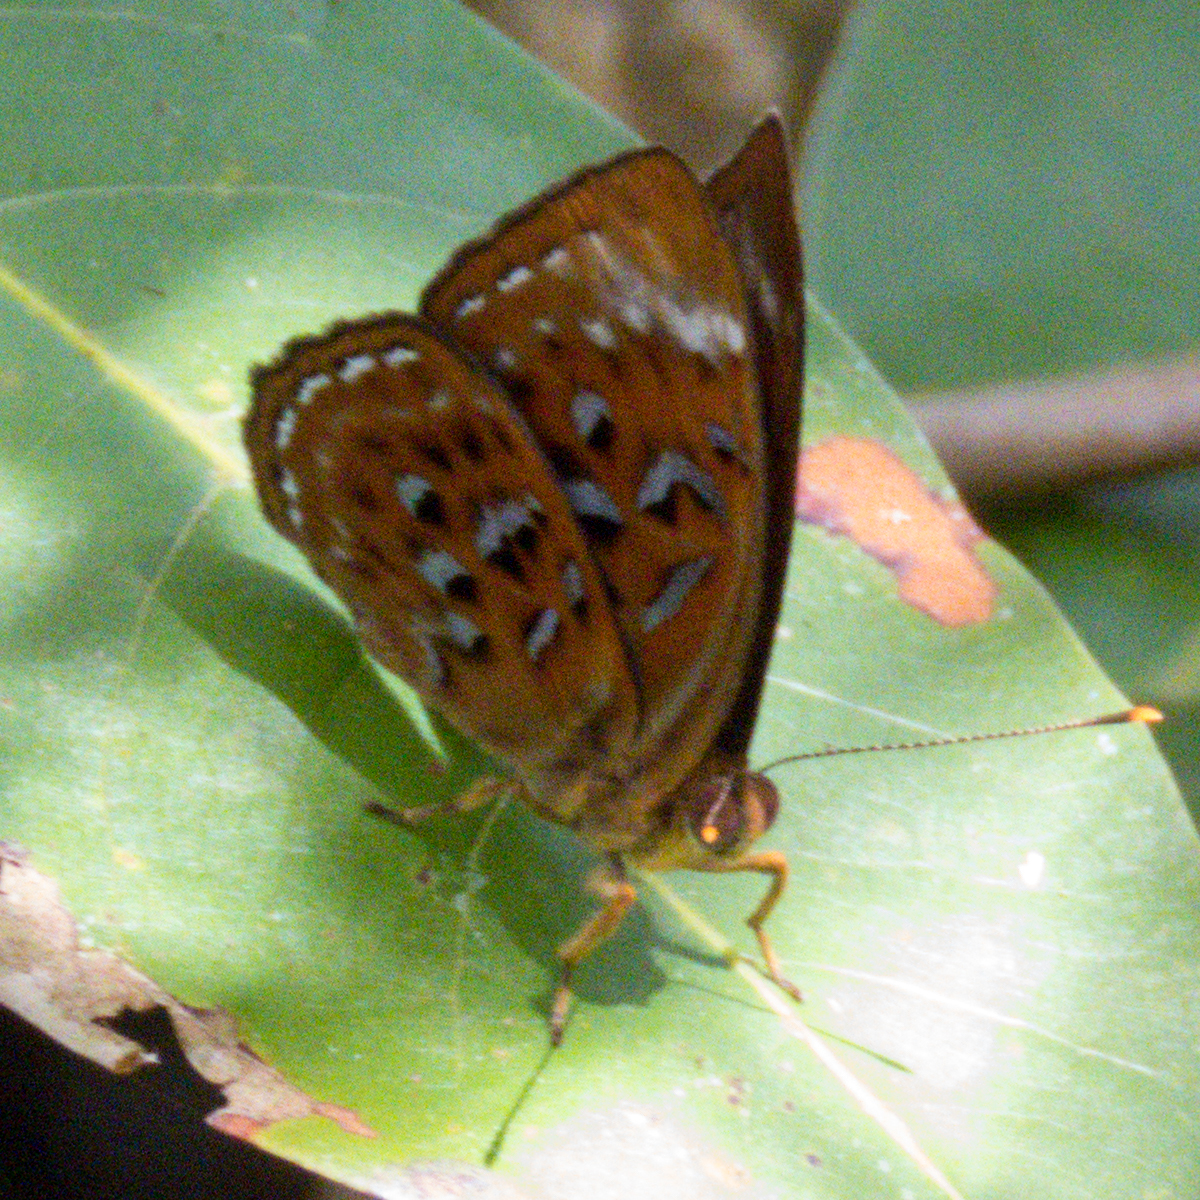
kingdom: Animalia
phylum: Arthropoda
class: Insecta
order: Lepidoptera
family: Erebidae
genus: Dysschema
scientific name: Dysschema
